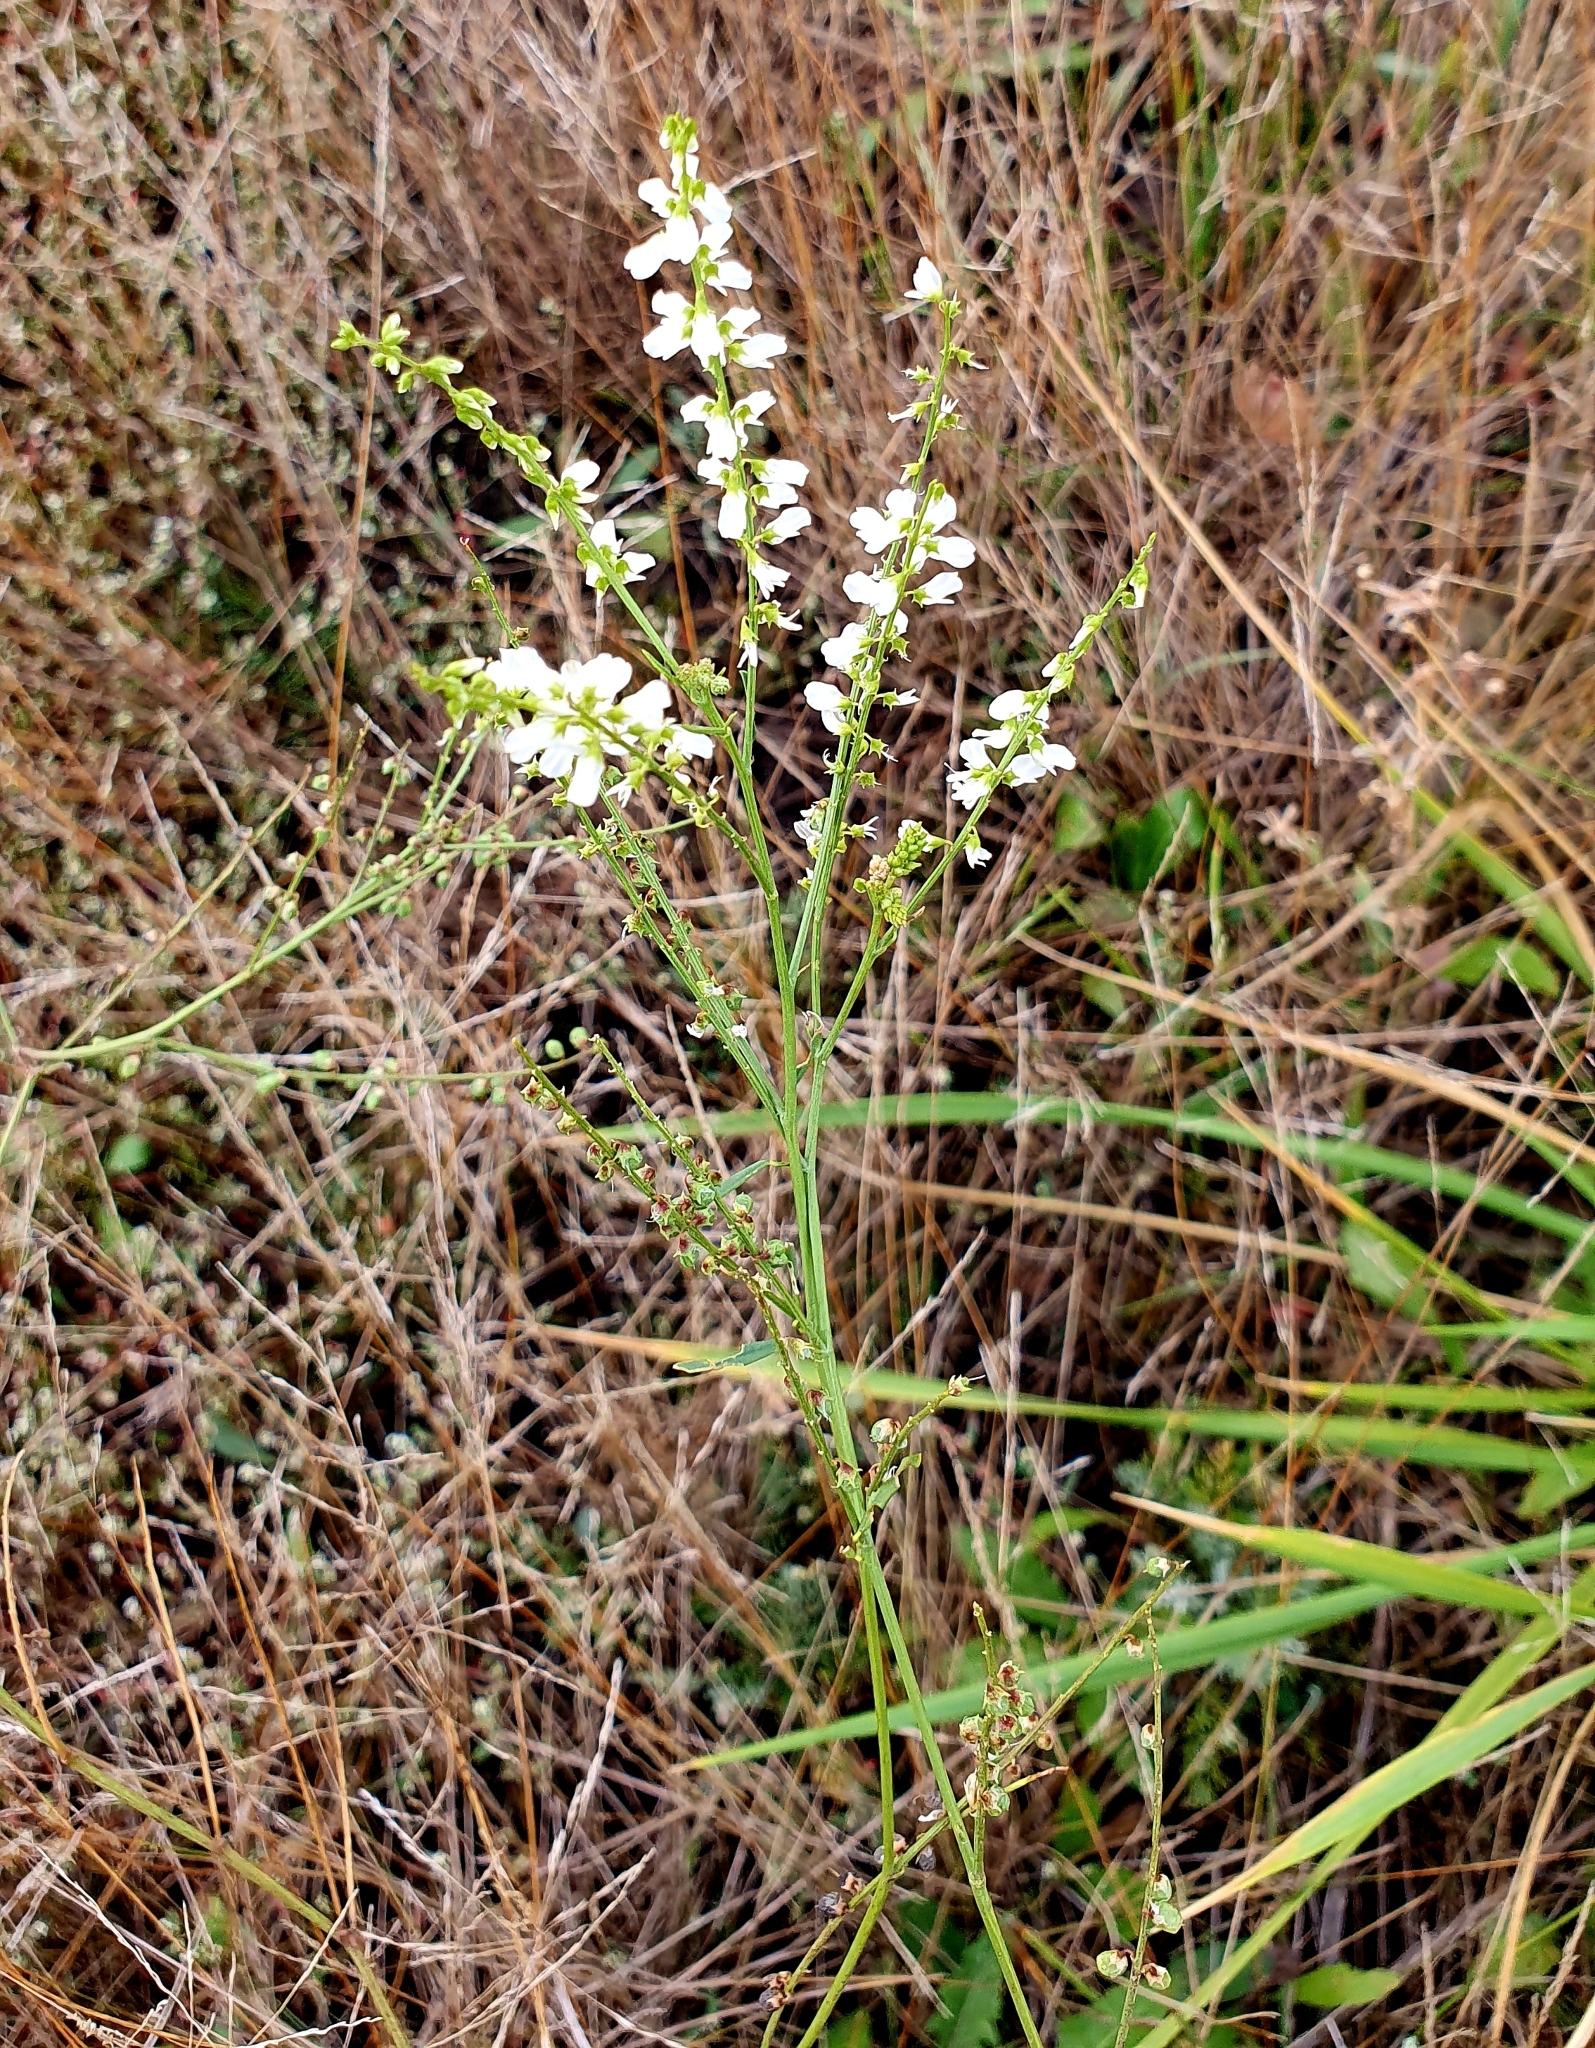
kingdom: Plantae
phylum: Tracheophyta
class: Magnoliopsida
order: Fabales
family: Fabaceae
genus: Melilotus
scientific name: Melilotus albus
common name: White melilot
